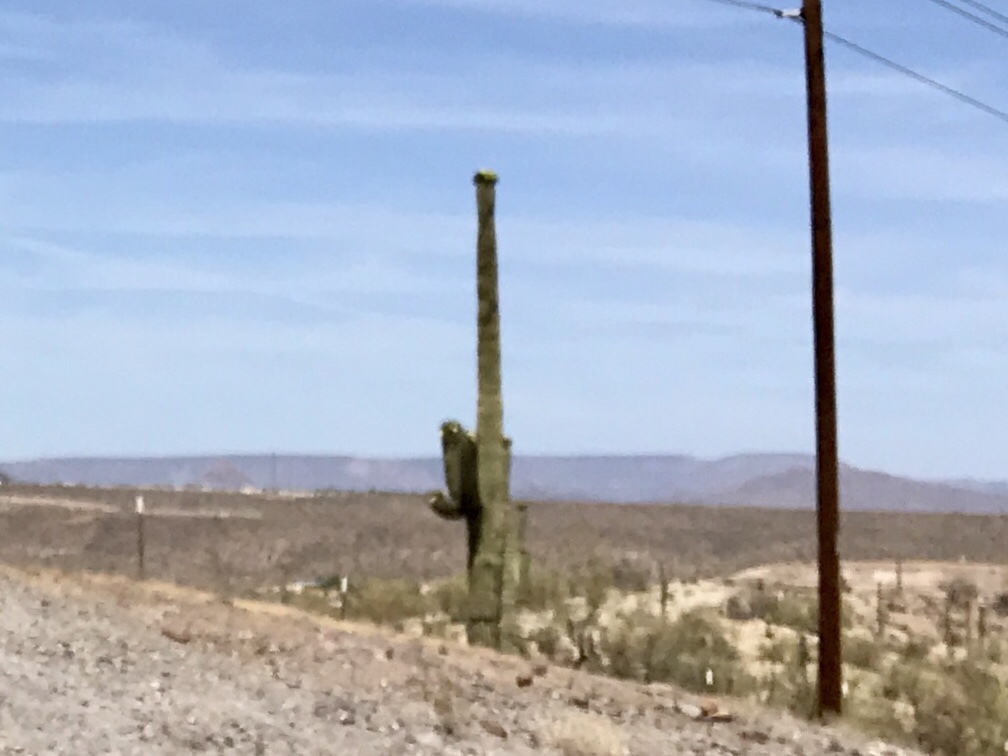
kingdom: Plantae
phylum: Tracheophyta
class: Magnoliopsida
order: Caryophyllales
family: Cactaceae
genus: Carnegiea
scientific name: Carnegiea gigantea
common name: Saguaro
